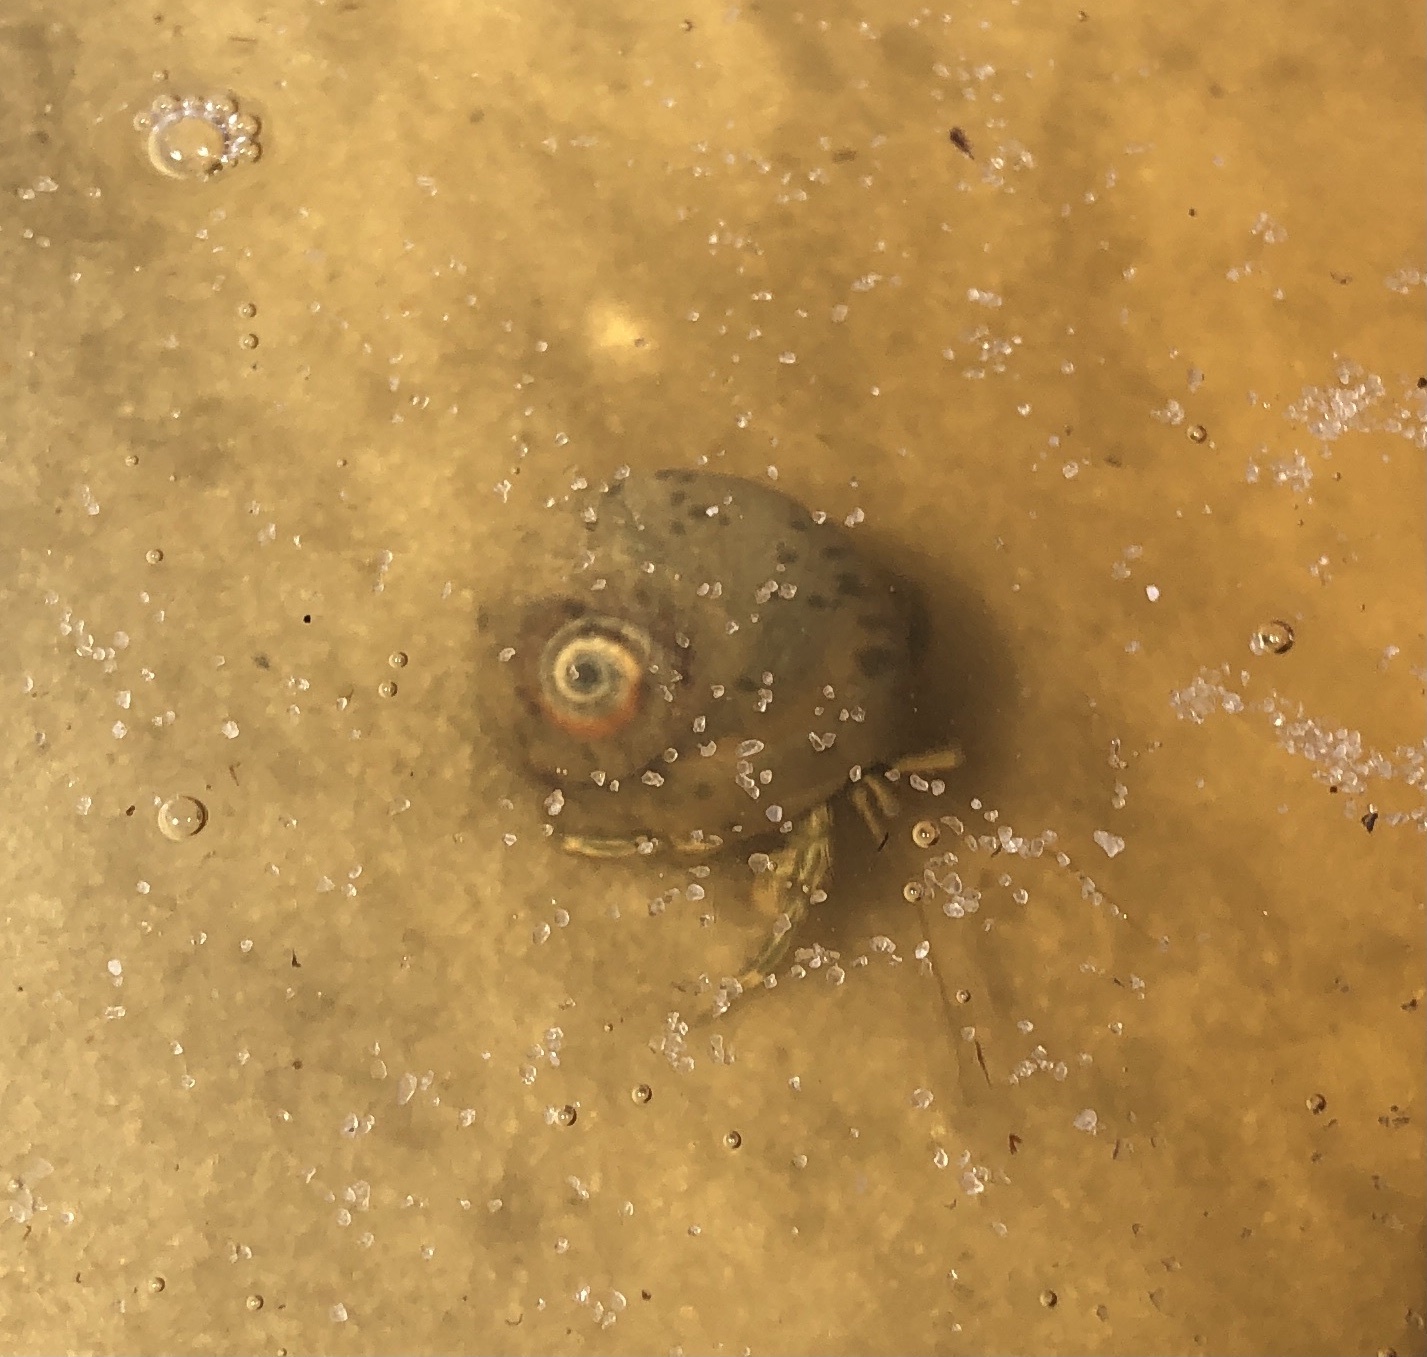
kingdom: Animalia
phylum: Arthropoda
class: Malacostraca
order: Decapoda
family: Diogenidae
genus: Clibanarius
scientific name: Clibanarius vittatus
